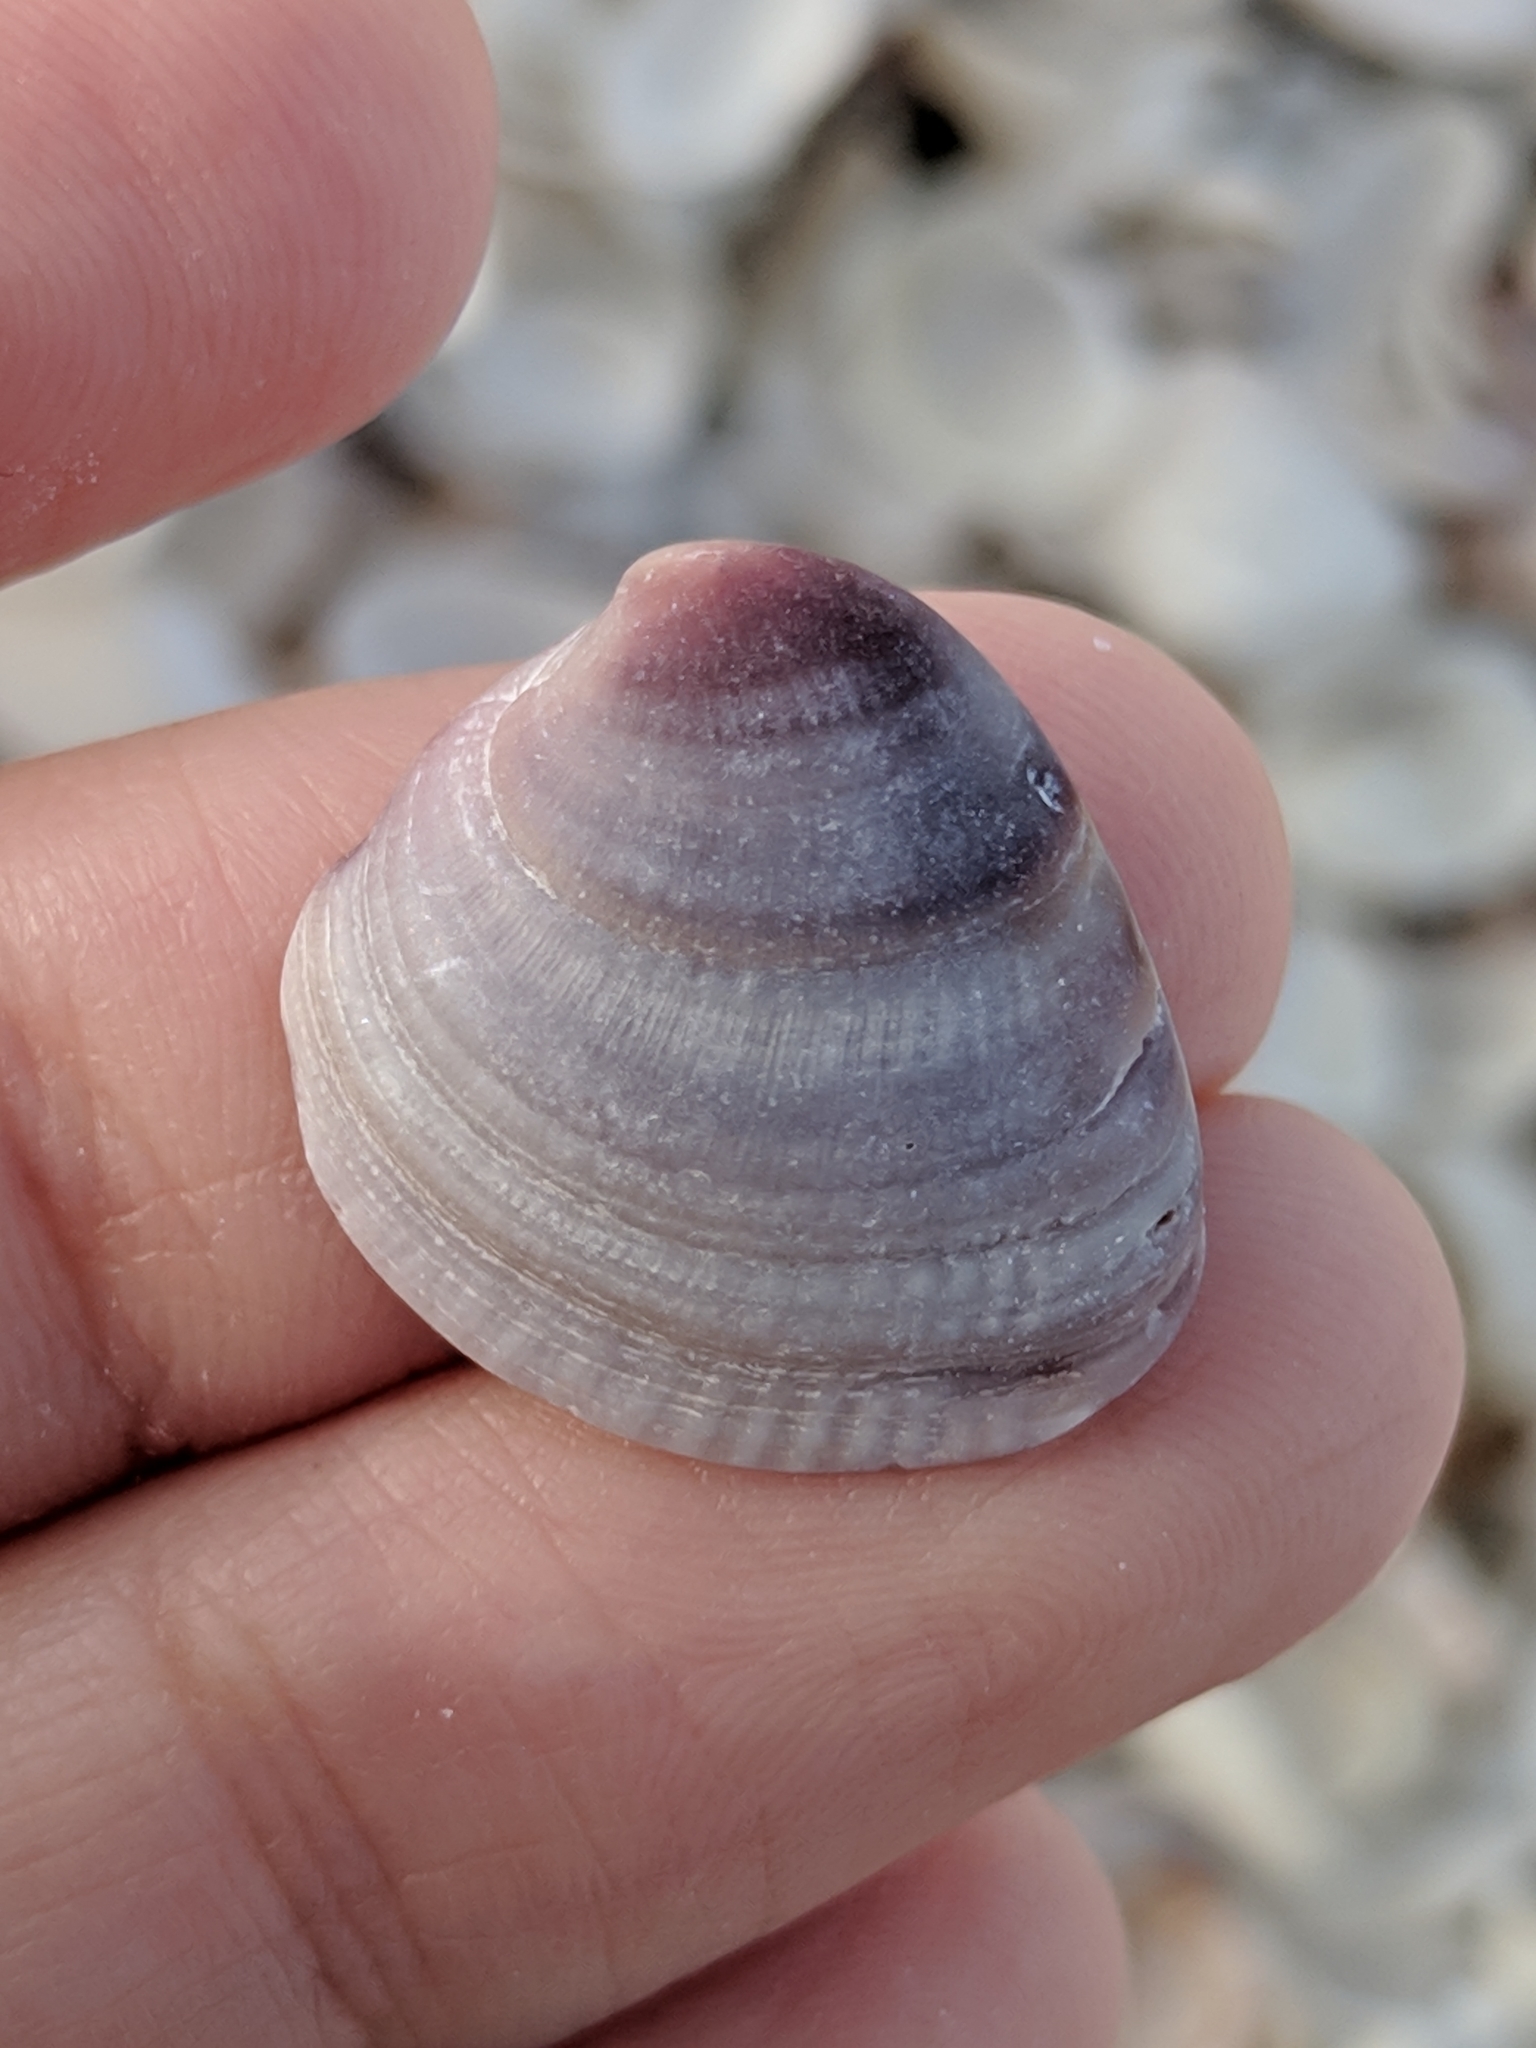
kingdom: Animalia
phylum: Mollusca
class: Bivalvia
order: Venerida
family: Veneridae
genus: Chione
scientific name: Chione elevata
